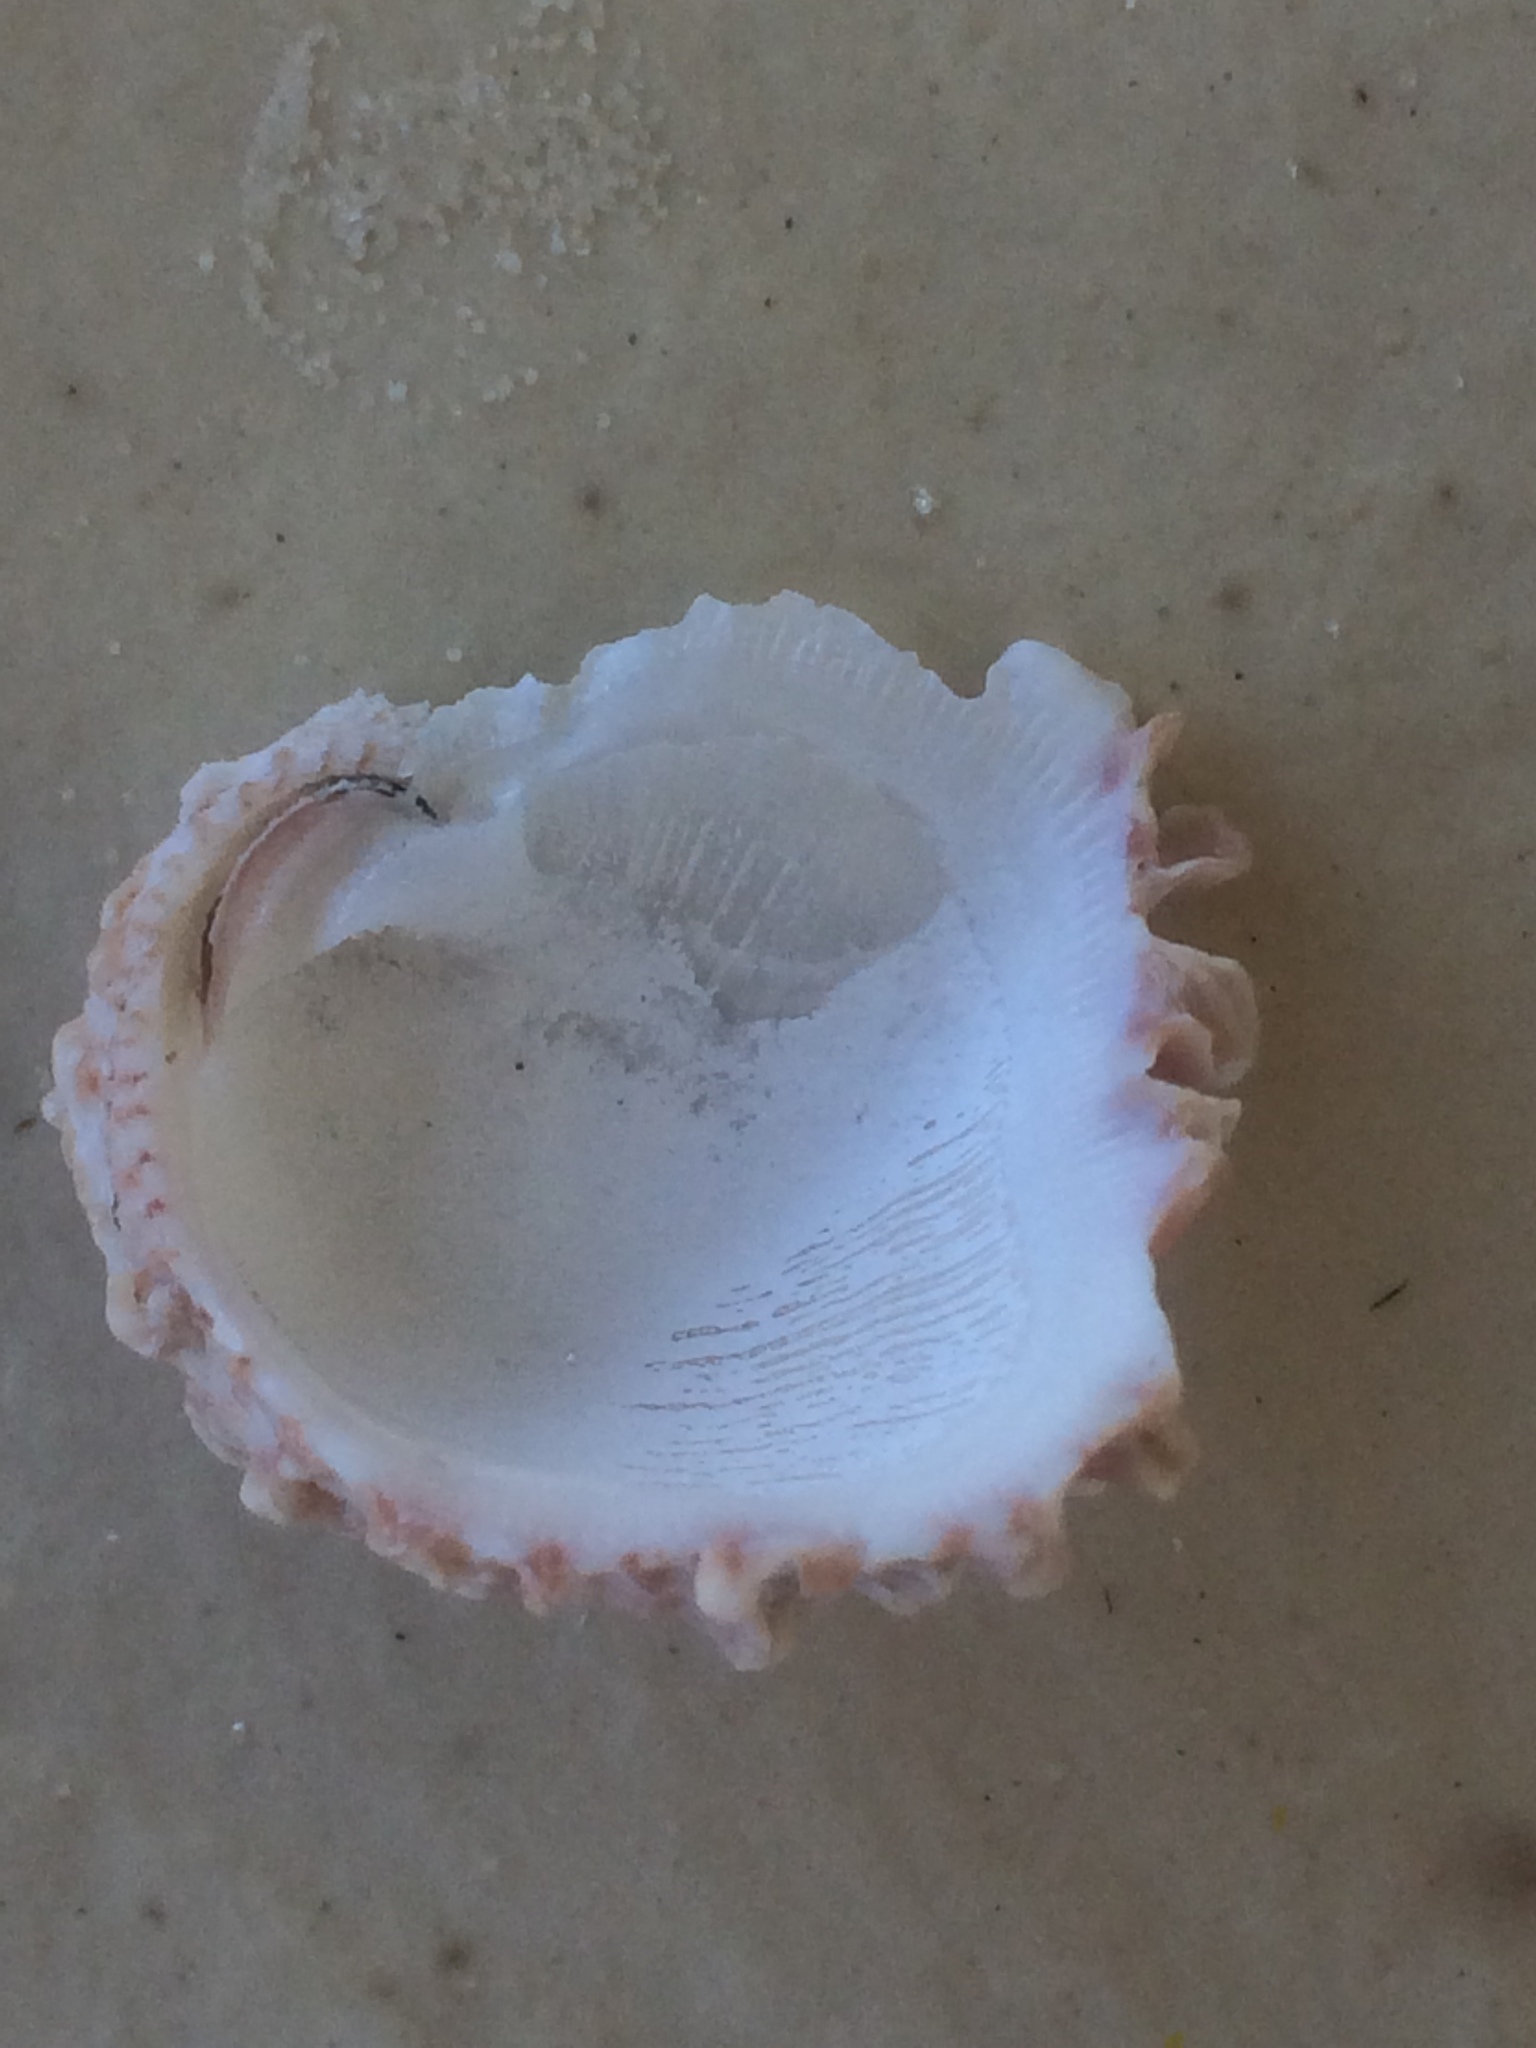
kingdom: Animalia
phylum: Mollusca
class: Bivalvia
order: Venerida
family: Chamidae
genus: Chama
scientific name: Chama congregata
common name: Corrugate jewelbox
